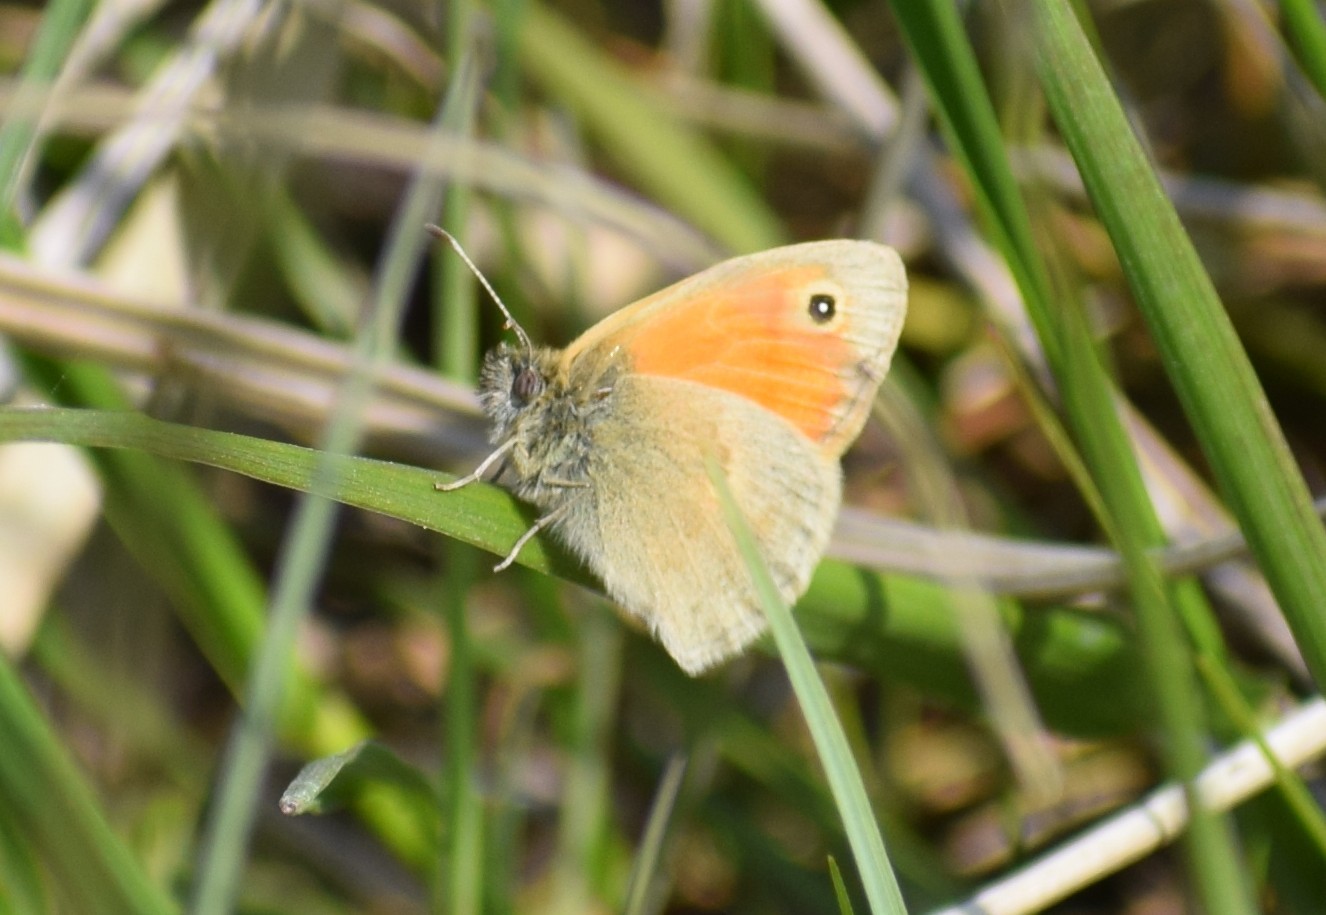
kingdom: Animalia
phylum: Arthropoda
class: Insecta
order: Lepidoptera
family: Nymphalidae
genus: Coenonympha
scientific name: Coenonympha pamphilus
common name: Small heath
